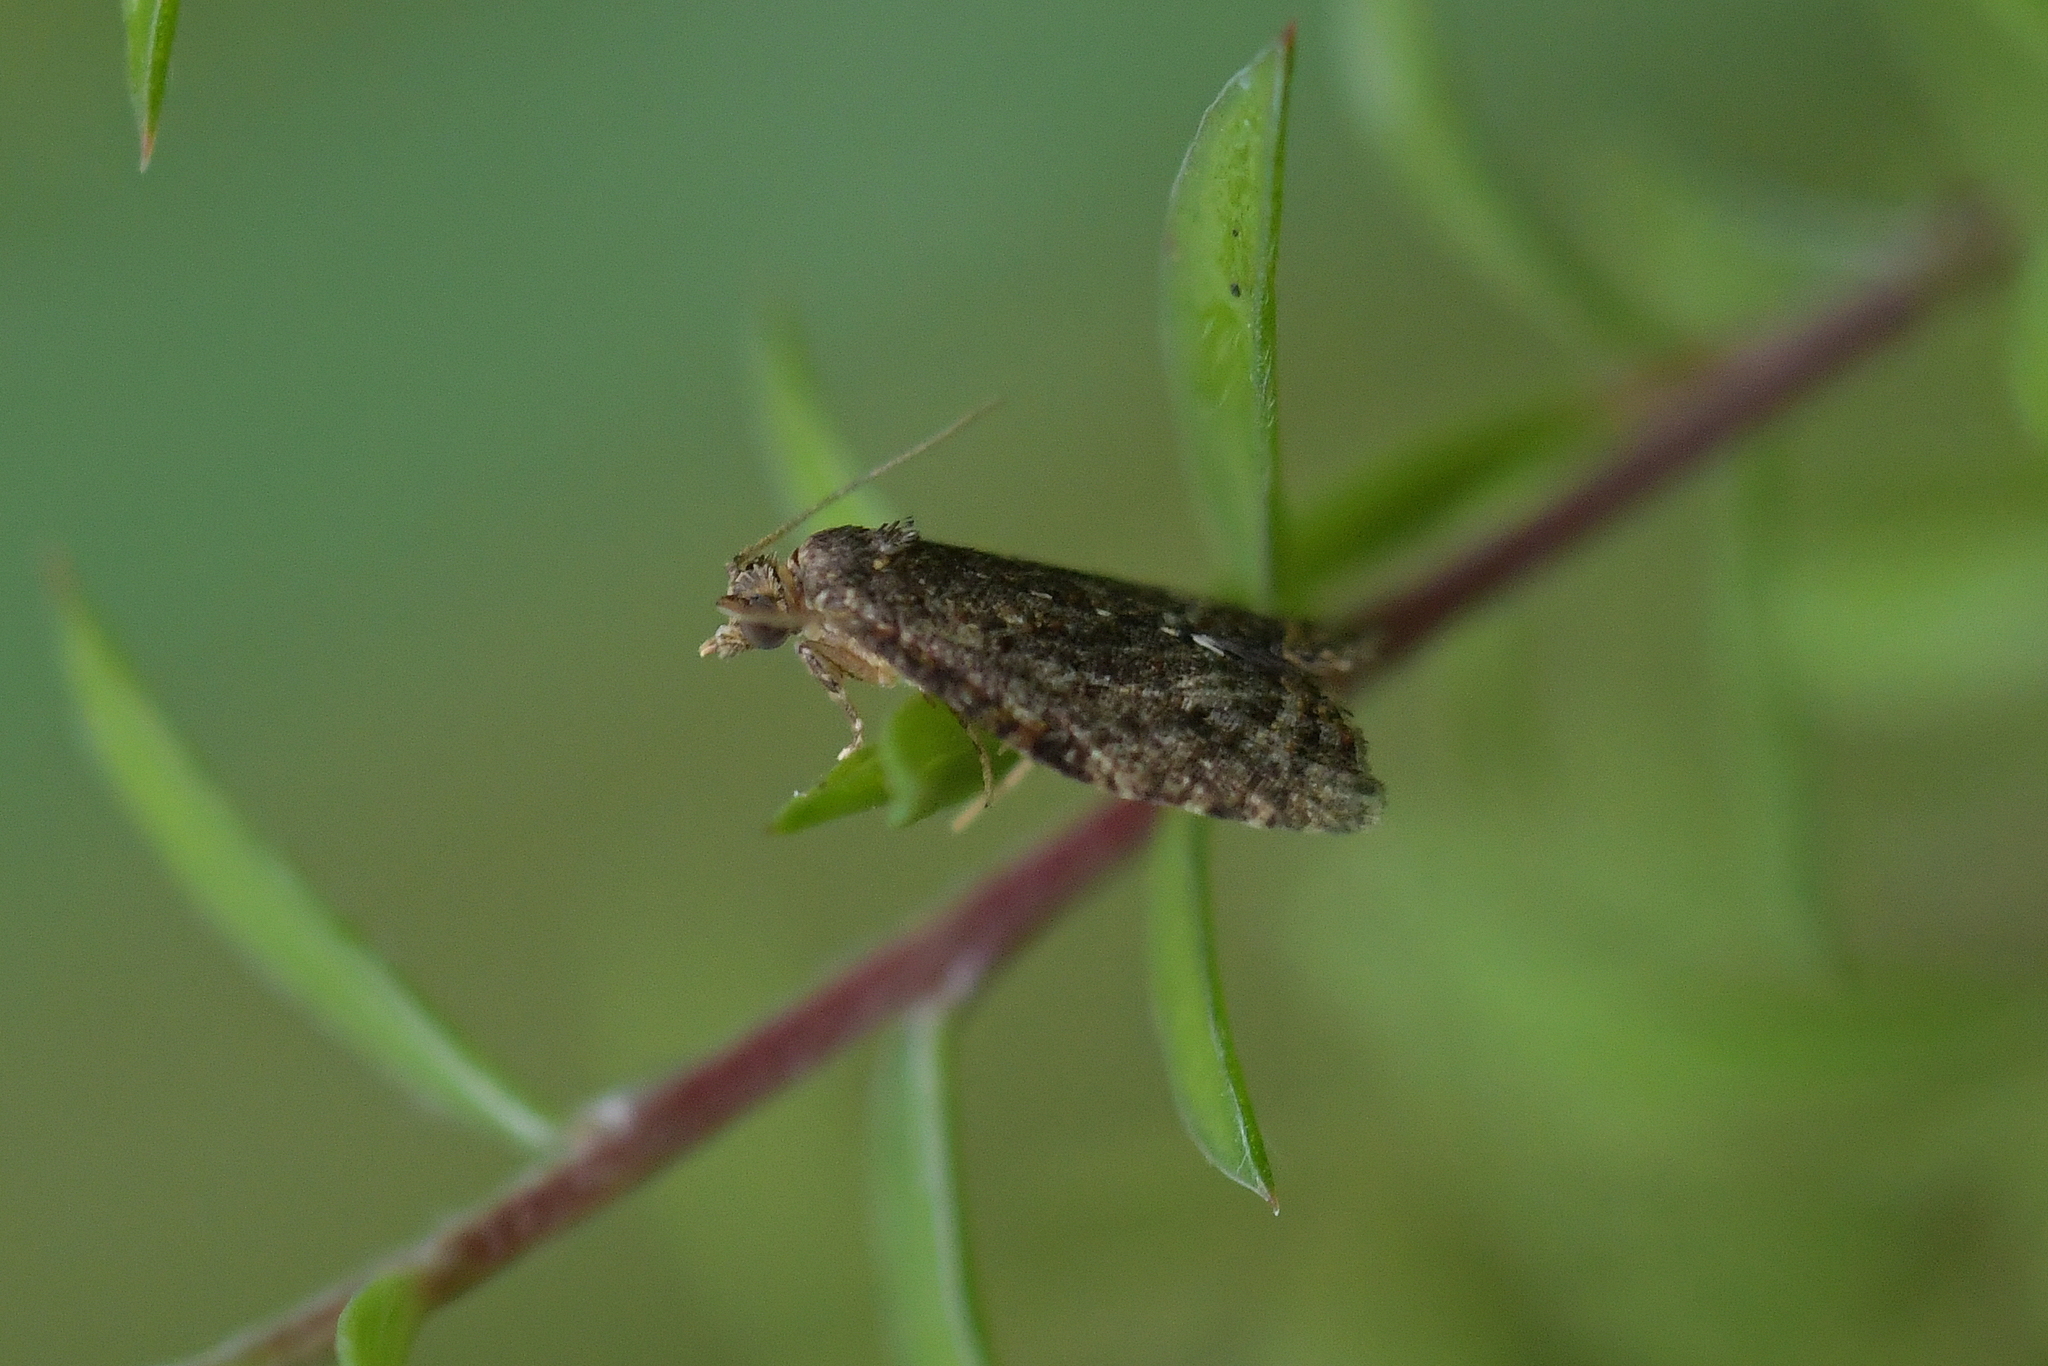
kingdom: Animalia
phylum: Arthropoda
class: Insecta
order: Lepidoptera
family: Tortricidae
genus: Capua
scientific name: Capua intractana
